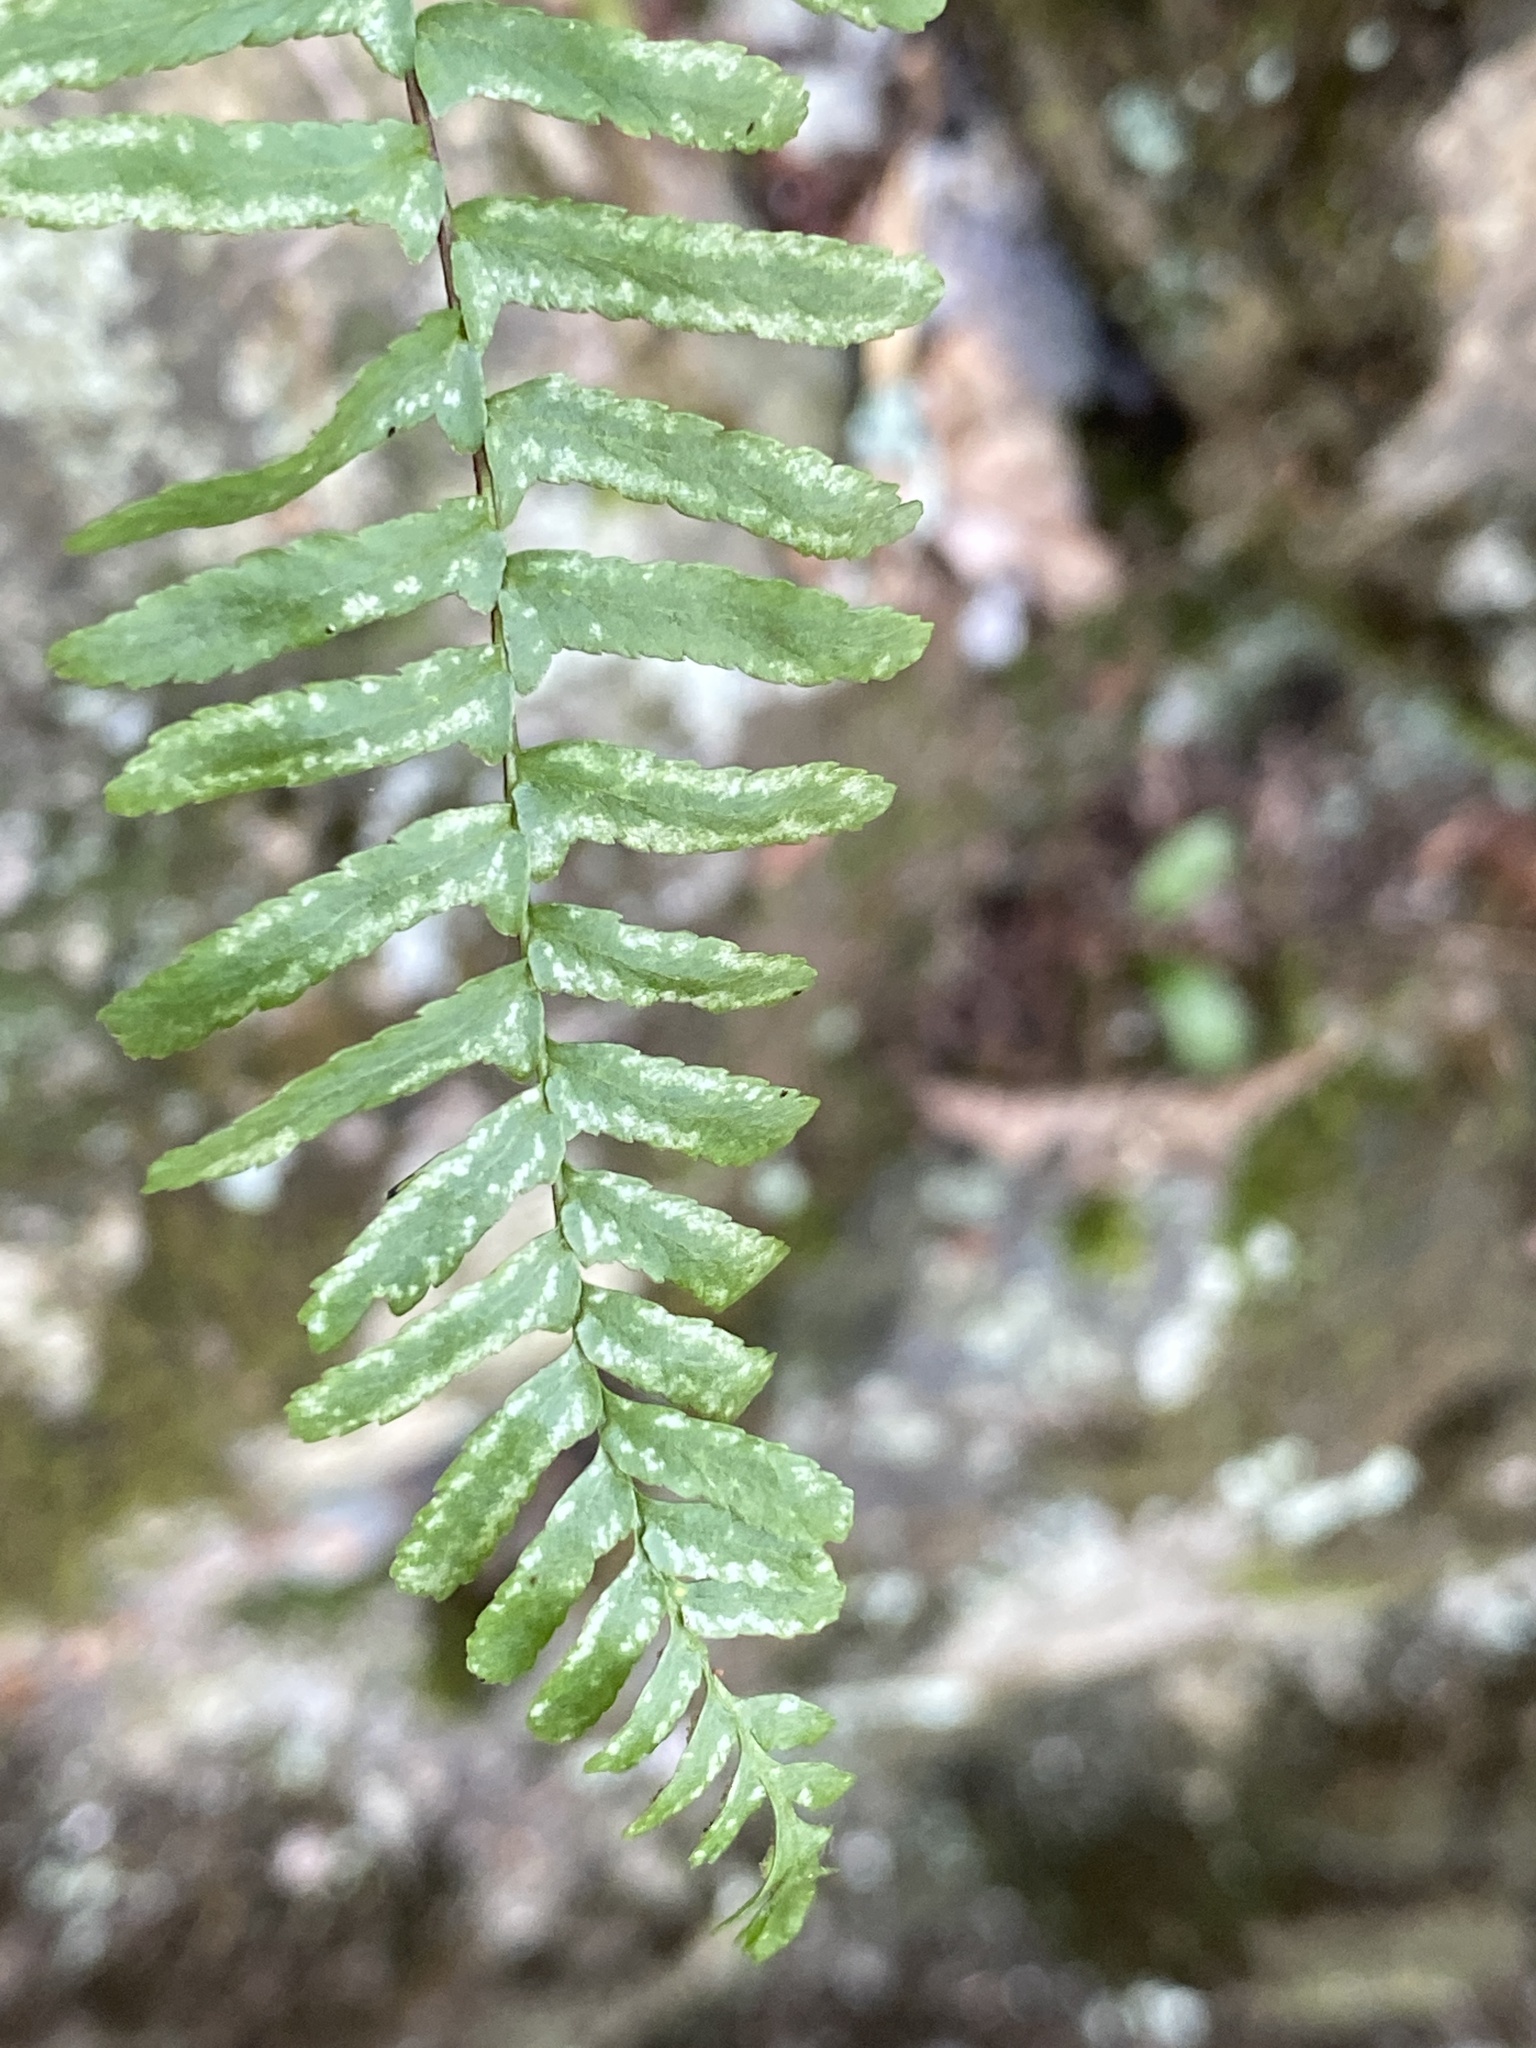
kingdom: Plantae
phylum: Tracheophyta
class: Polypodiopsida
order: Polypodiales
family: Aspleniaceae
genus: Asplenium
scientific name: Asplenium platyneuron
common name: Ebony spleenwort
